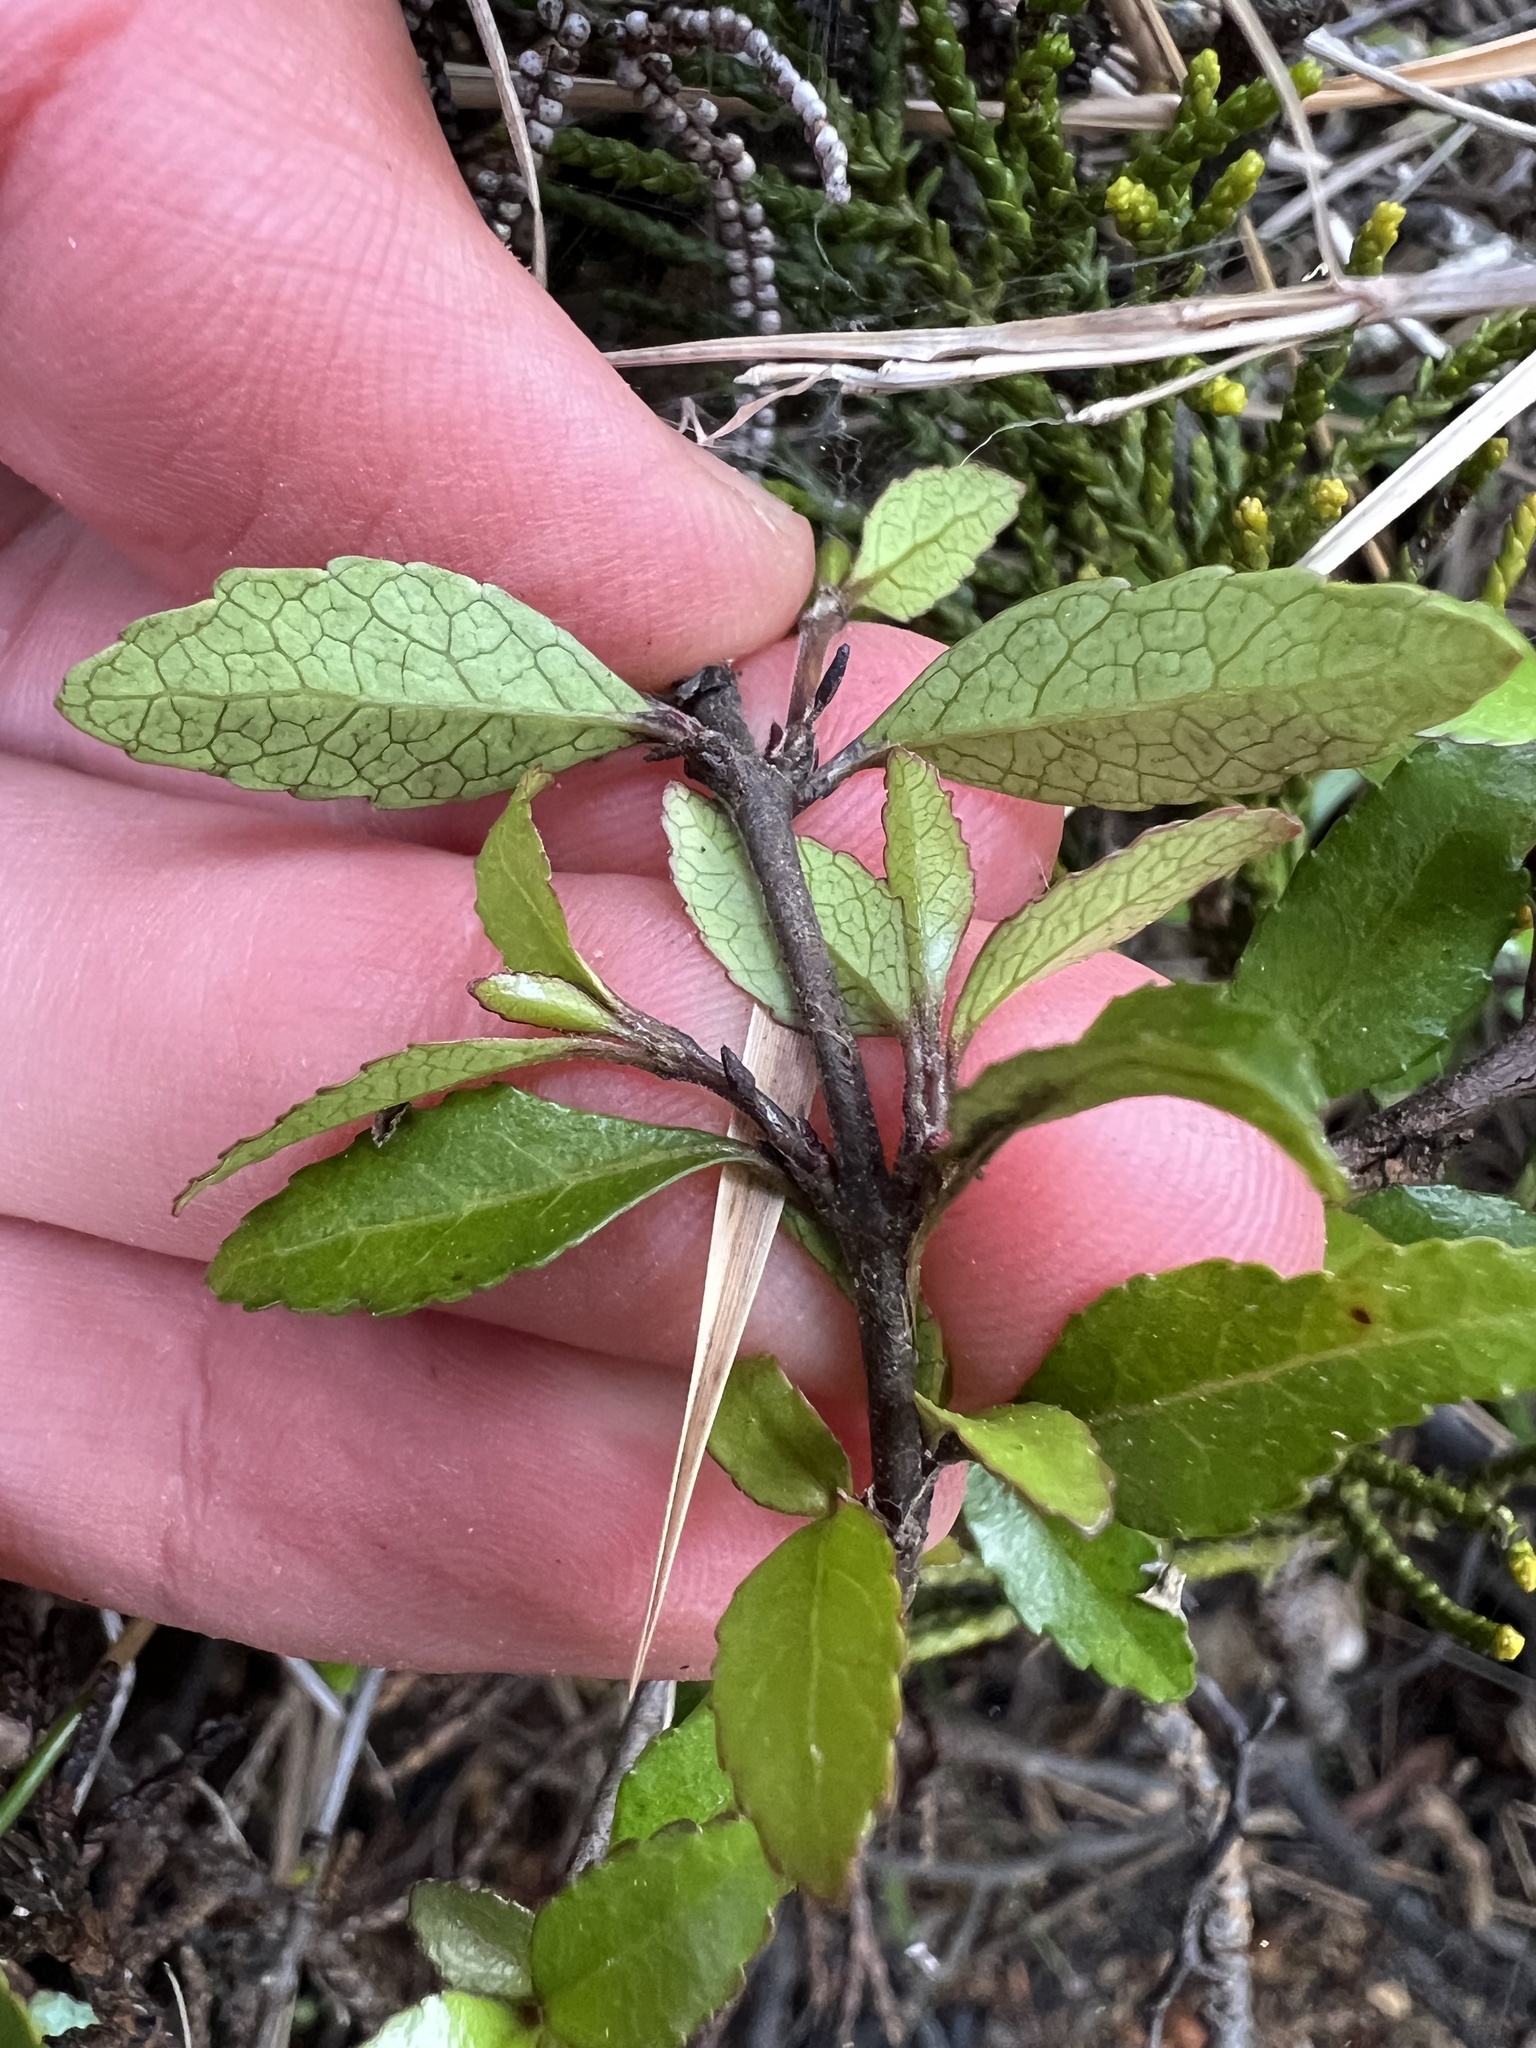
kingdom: Plantae
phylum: Tracheophyta
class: Magnoliopsida
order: Oxalidales
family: Elaeocarpaceae
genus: Aristotelia
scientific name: Aristotelia fruticosa
